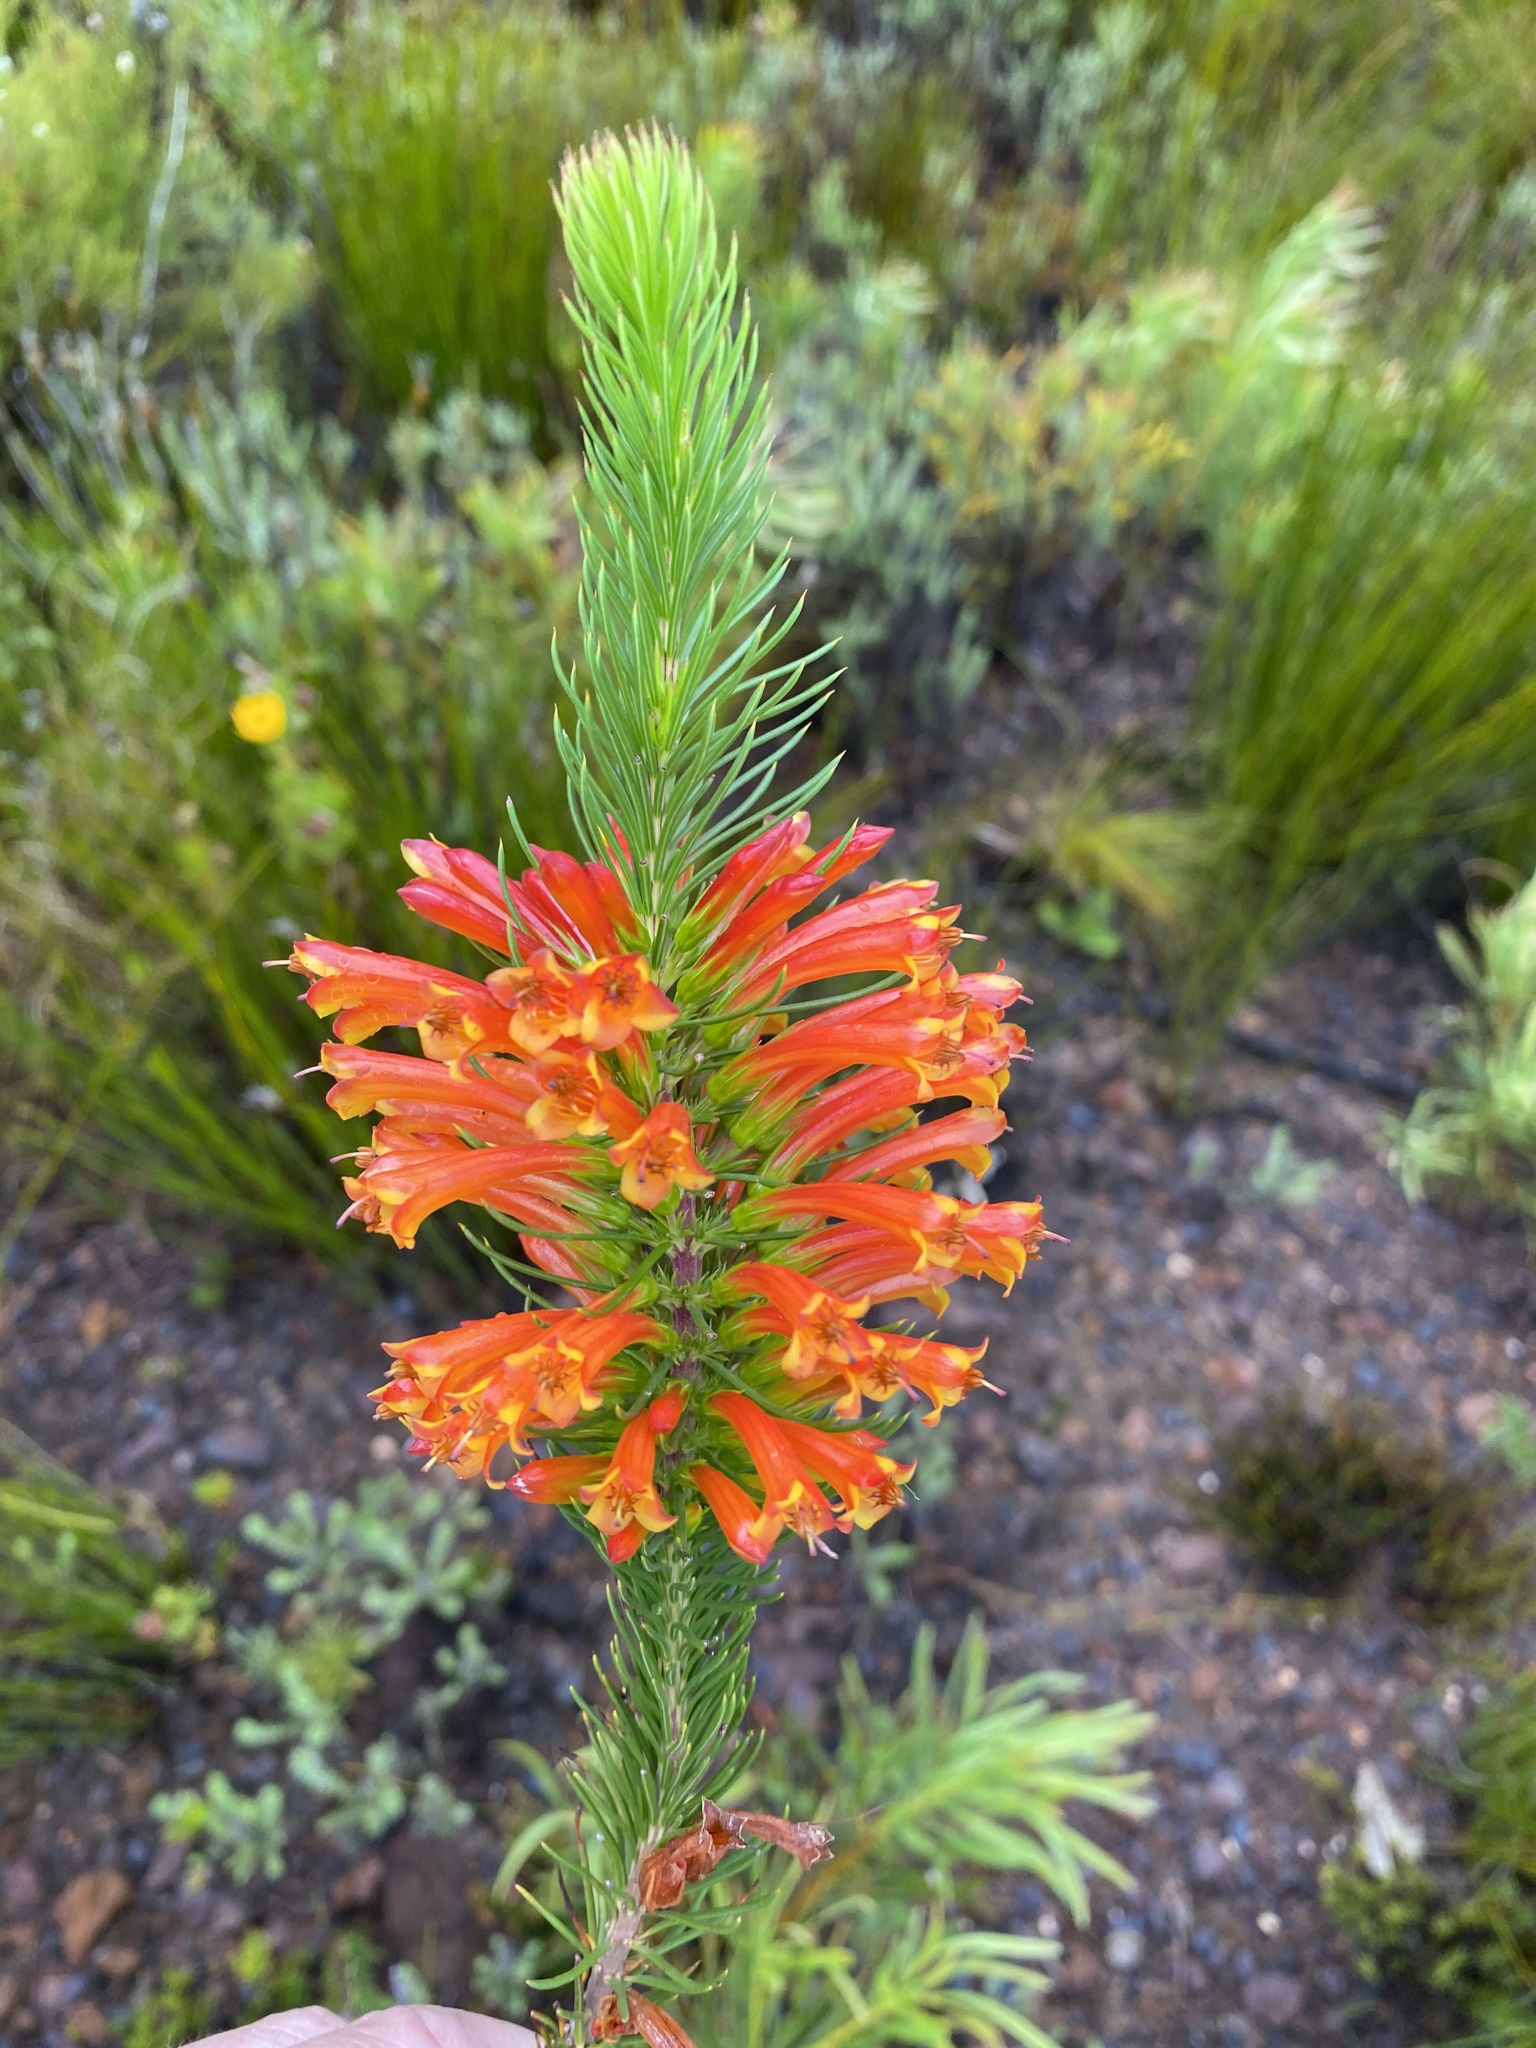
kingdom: Plantae
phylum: Tracheophyta
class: Magnoliopsida
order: Ericales
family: Ericaceae
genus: Erica
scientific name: Erica grandiflora
